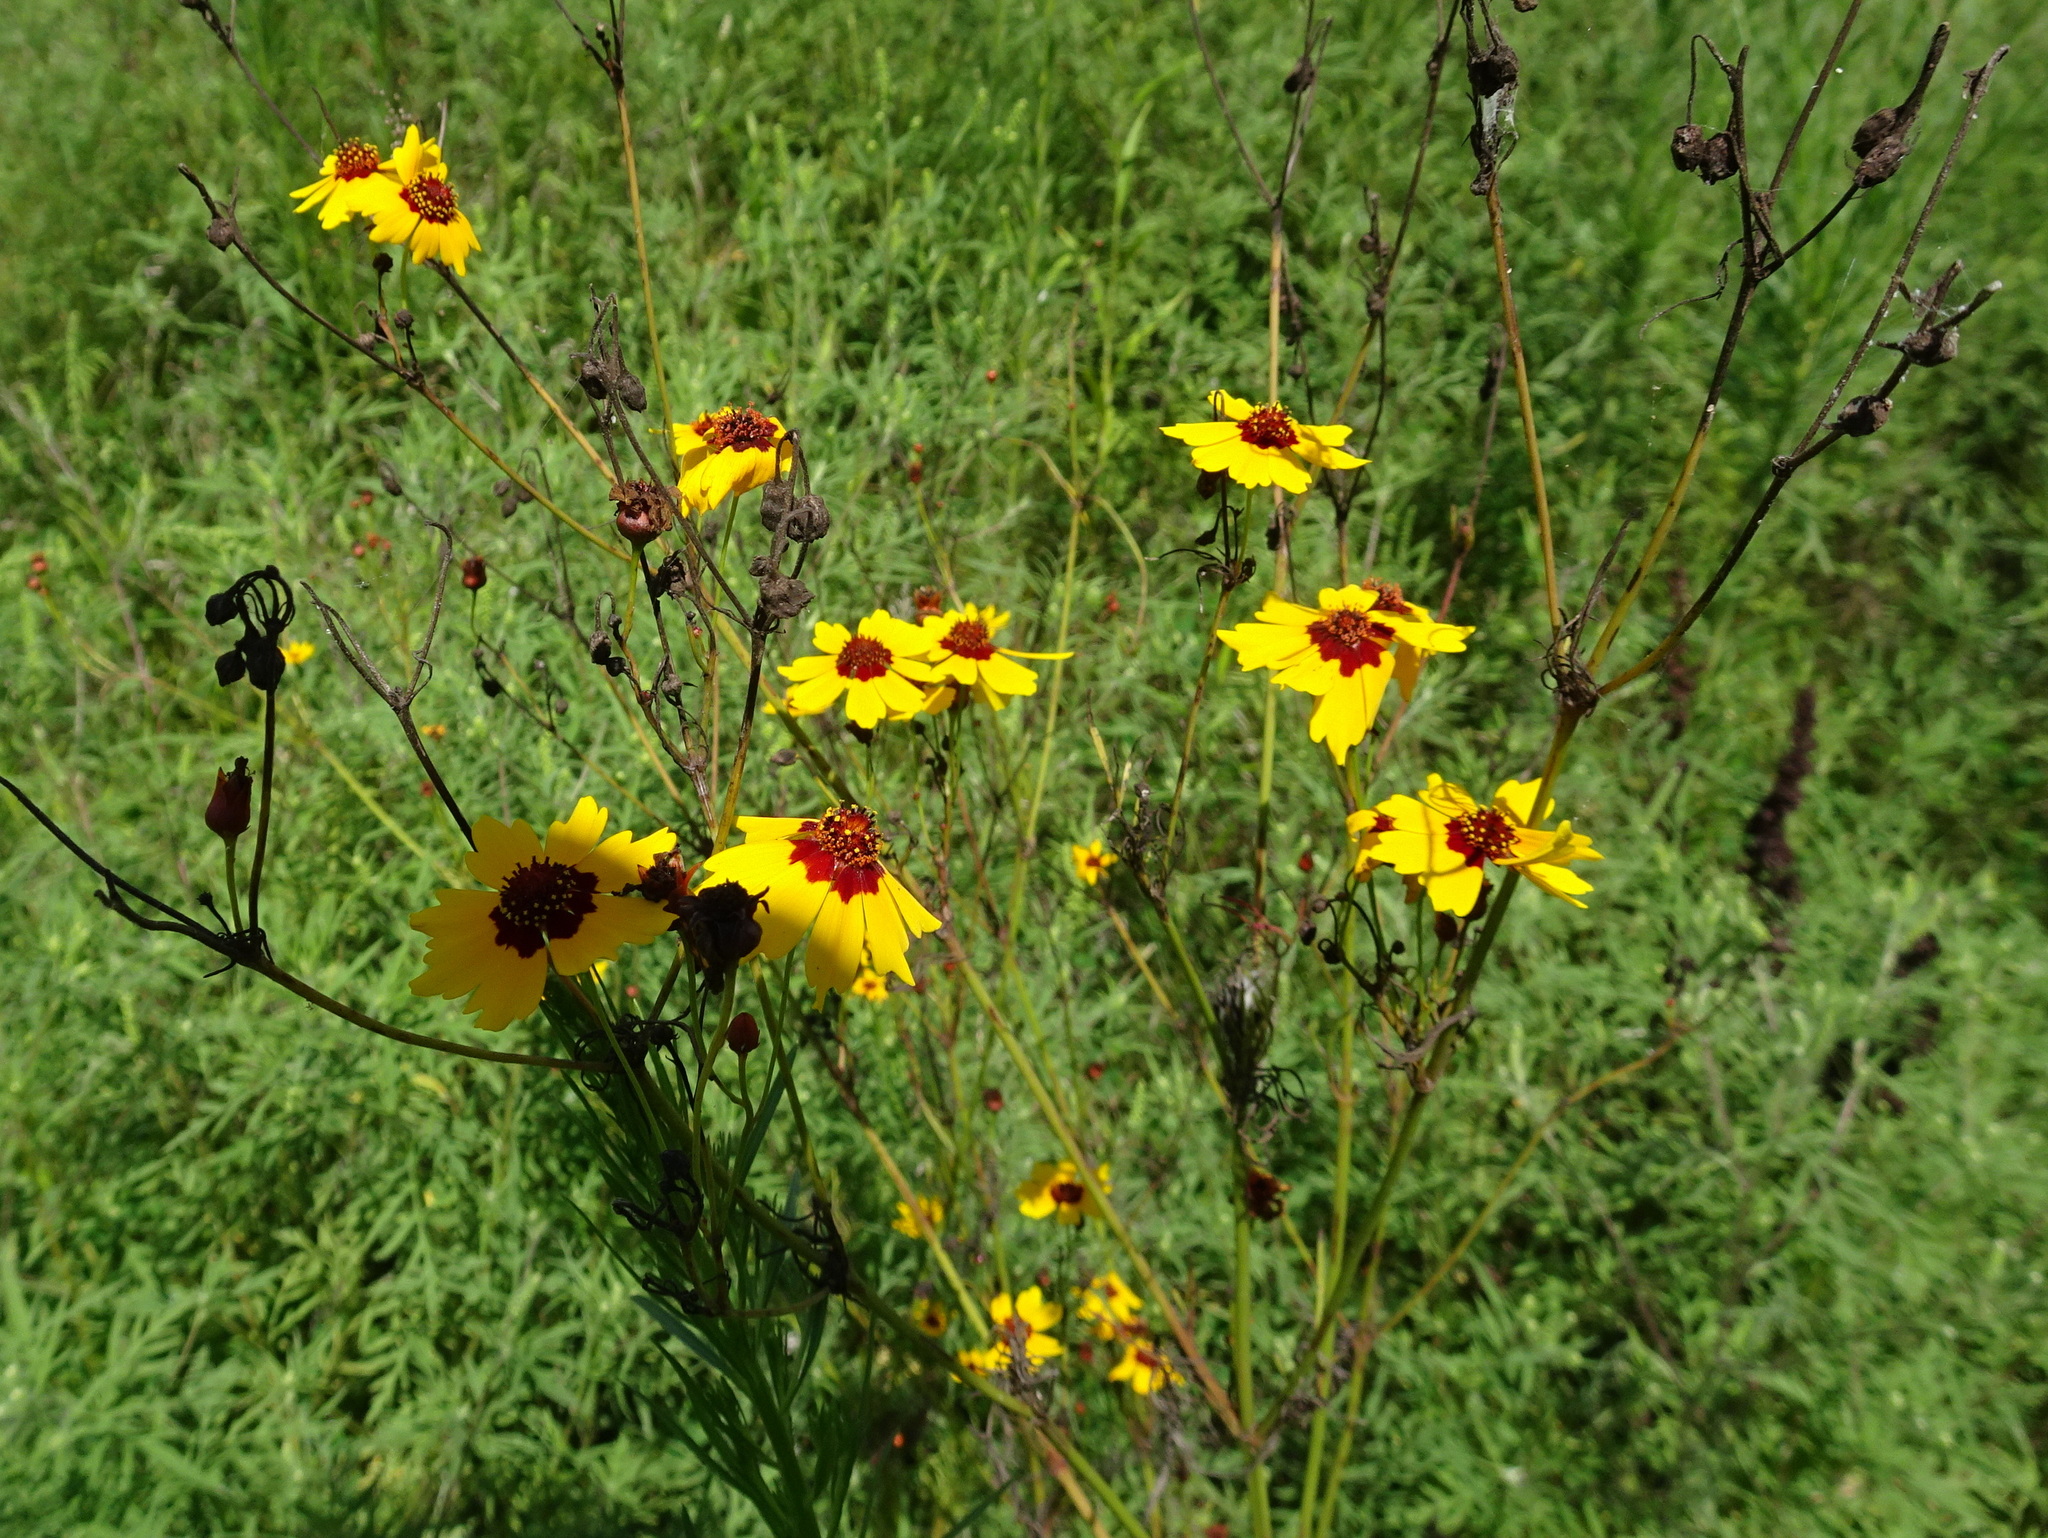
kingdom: Plantae
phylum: Tracheophyta
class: Magnoliopsida
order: Asterales
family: Asteraceae
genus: Coreopsis
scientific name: Coreopsis tinctoria
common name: Garden tickseed
